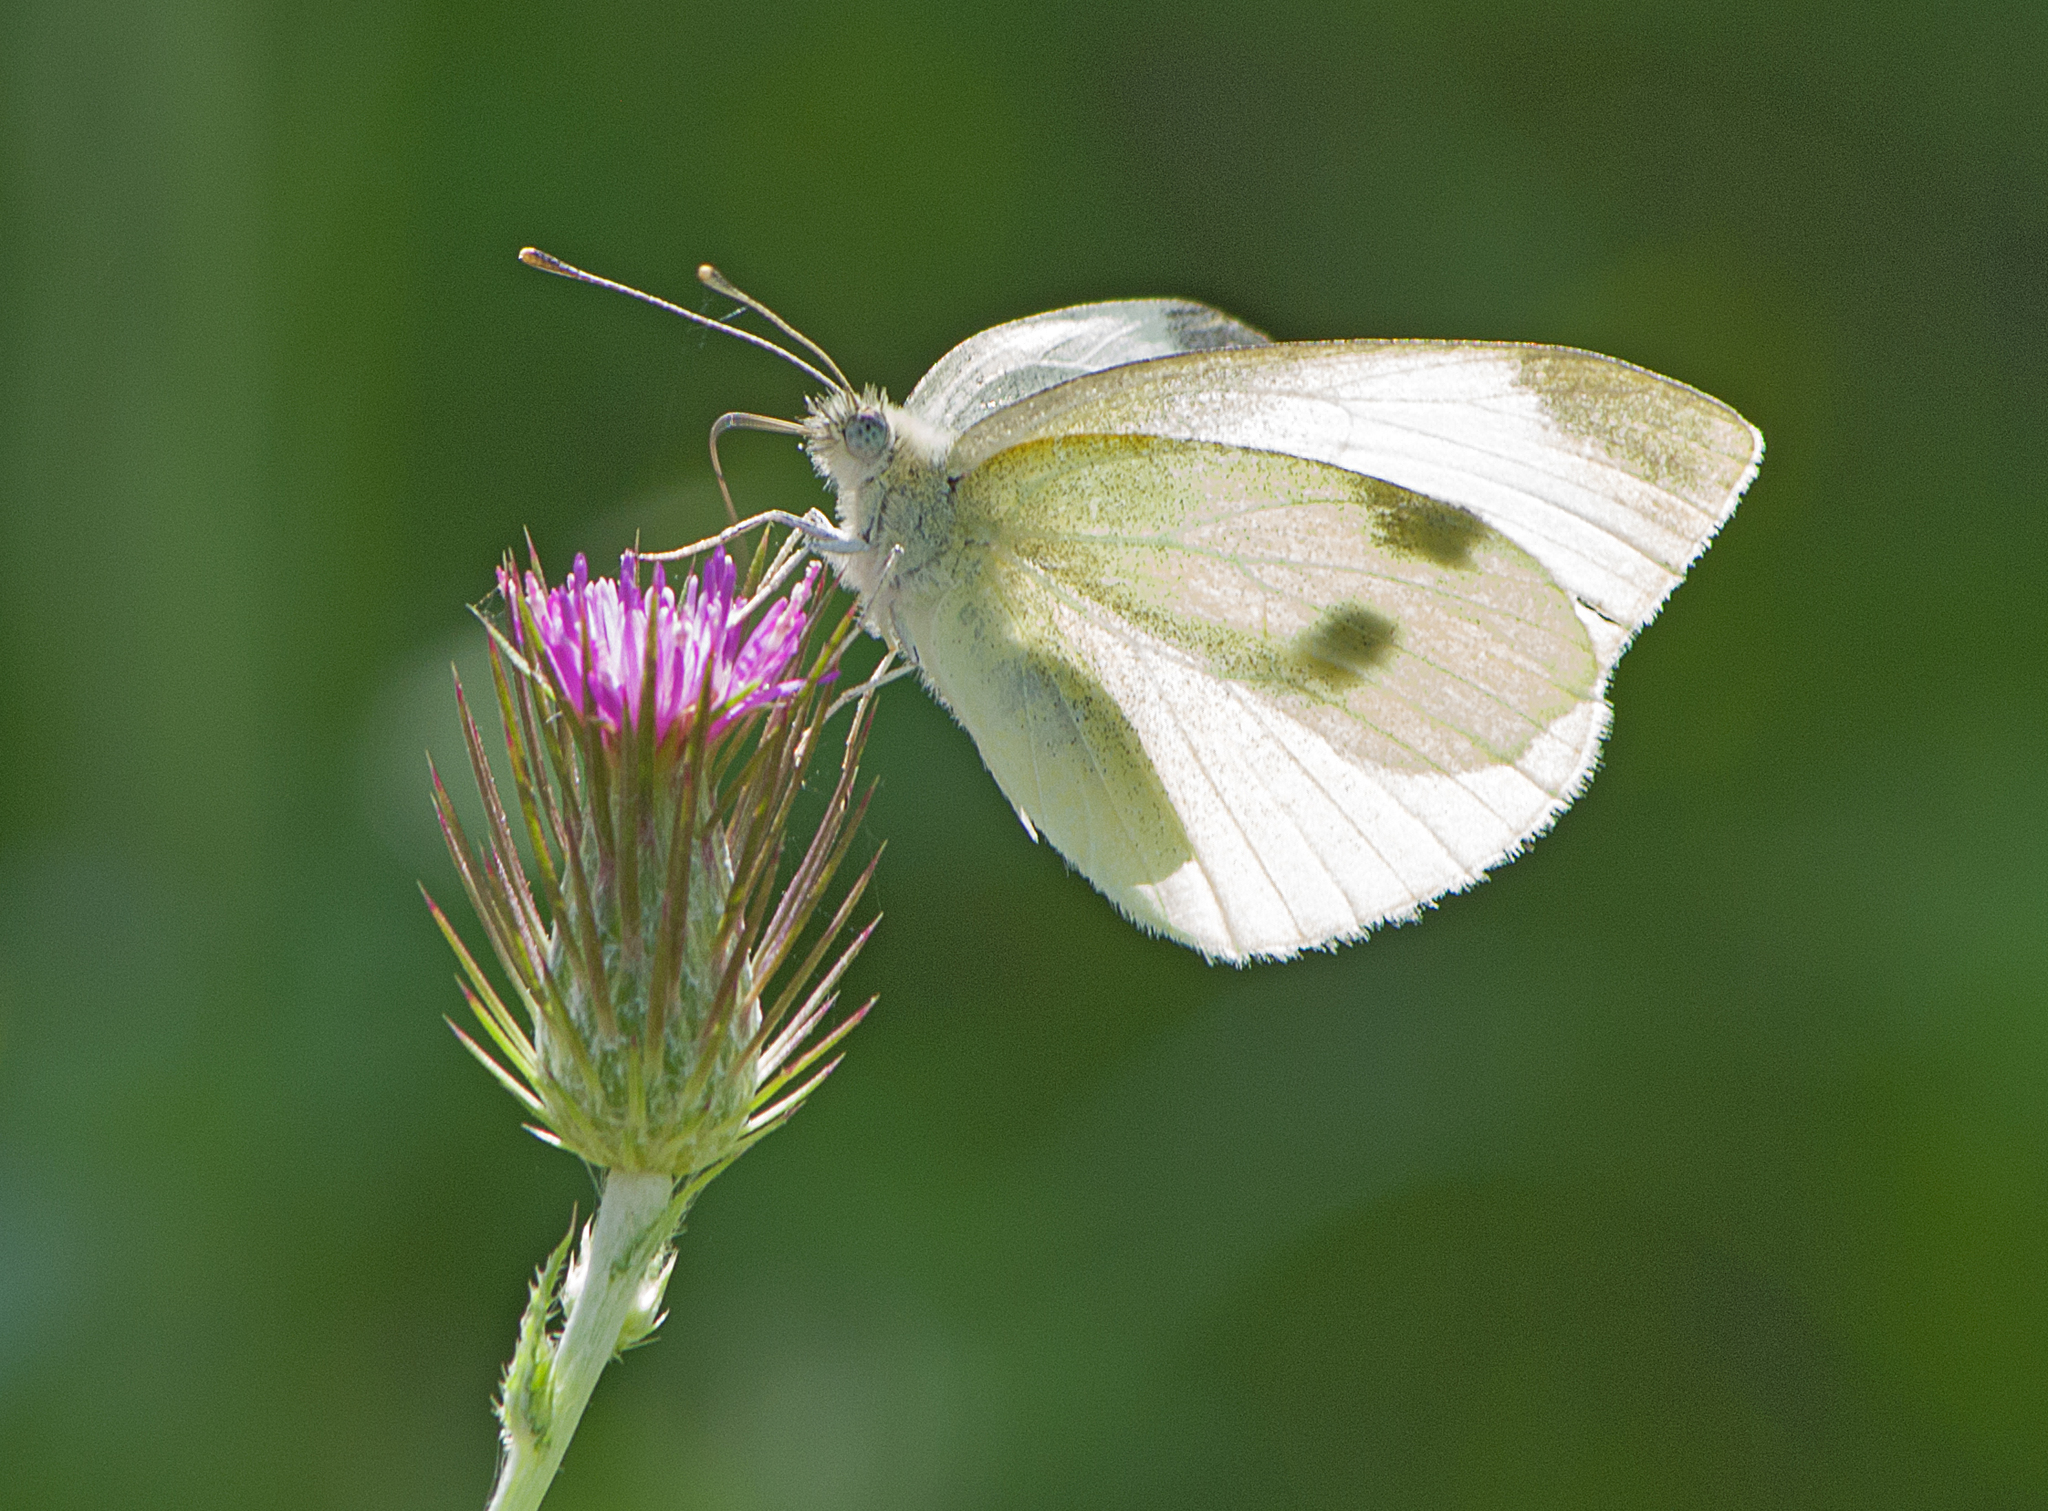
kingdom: Animalia
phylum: Arthropoda
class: Insecta
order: Lepidoptera
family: Pieridae
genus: Pieris
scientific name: Pieris rapae
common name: Small white
